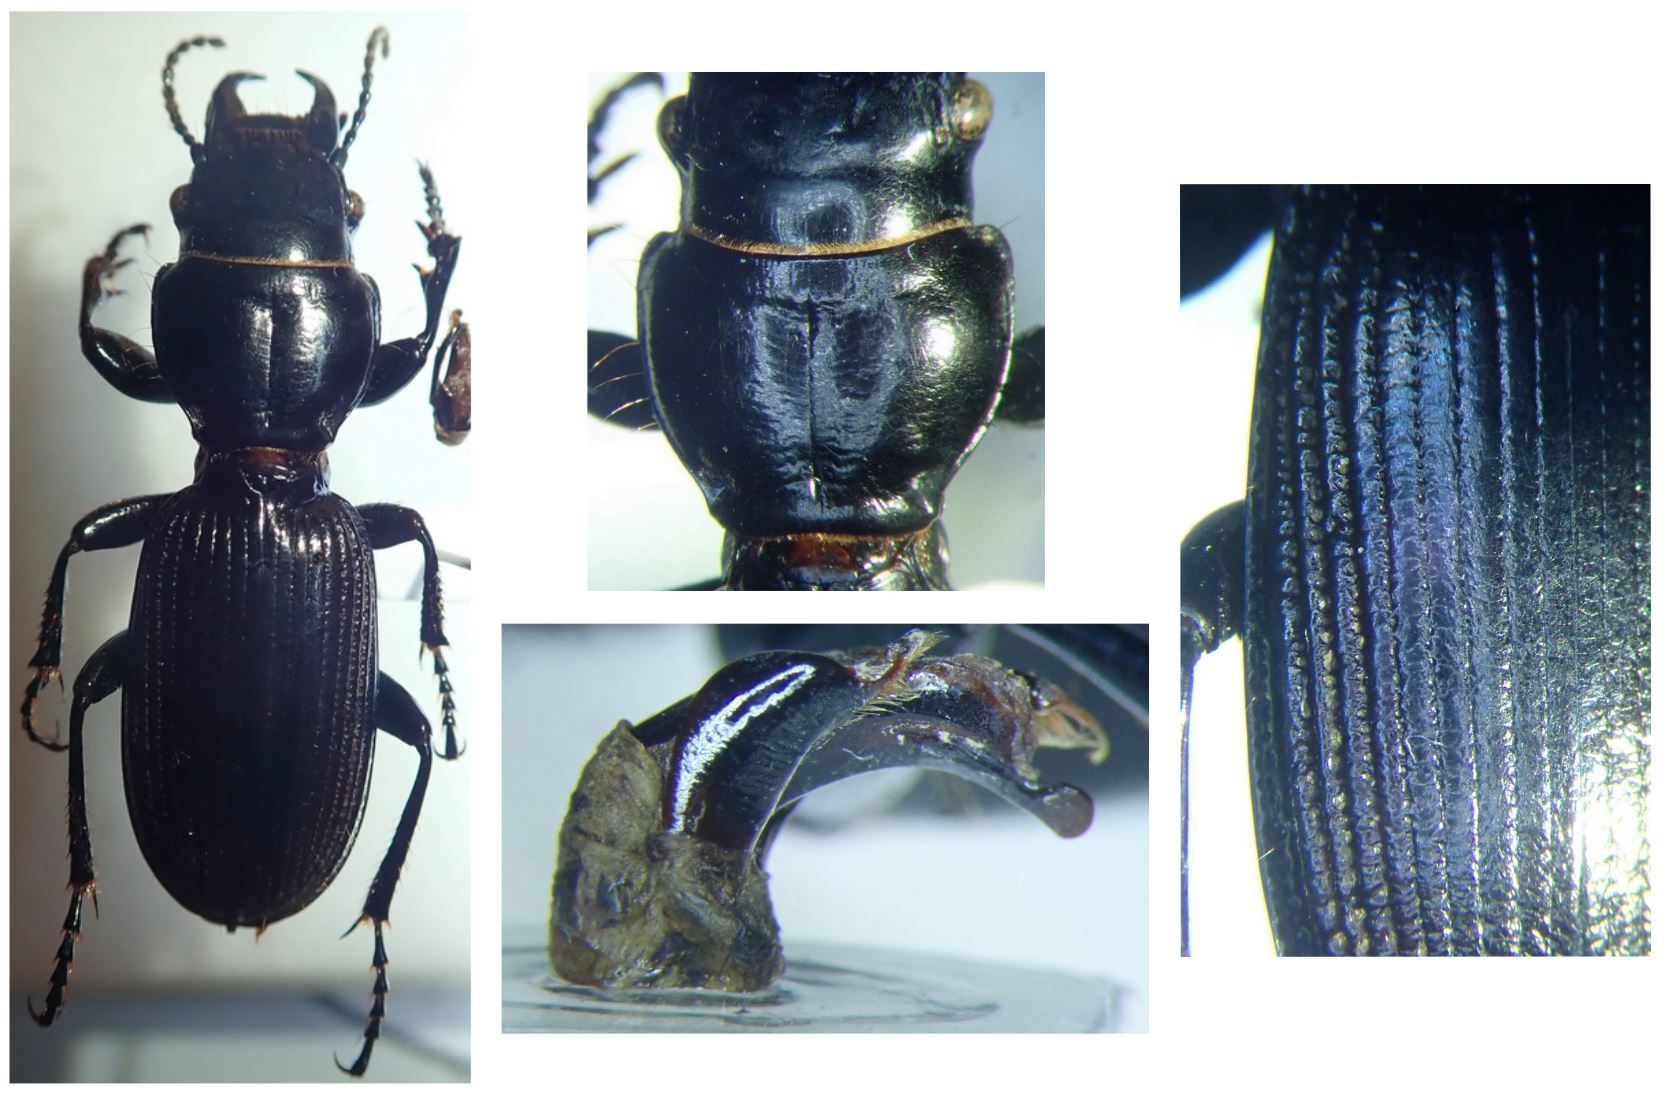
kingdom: Animalia
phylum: Arthropoda
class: Insecta
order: Coleoptera
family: Carabidae
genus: Mecodema
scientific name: Mecodema fulgidum
